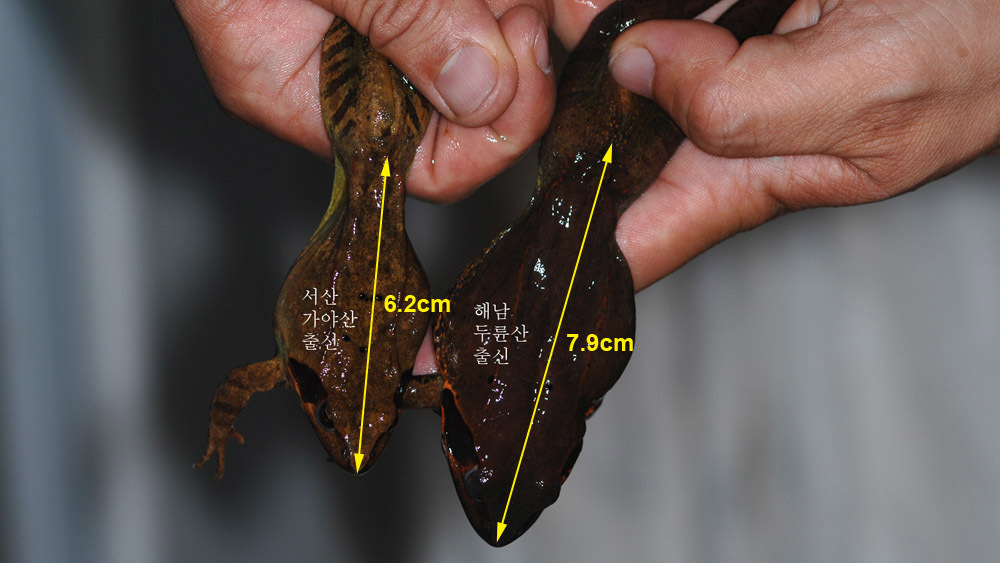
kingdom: Animalia
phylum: Chordata
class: Amphibia
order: Anura
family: Ranidae
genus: Rana
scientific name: Rana uenoi
